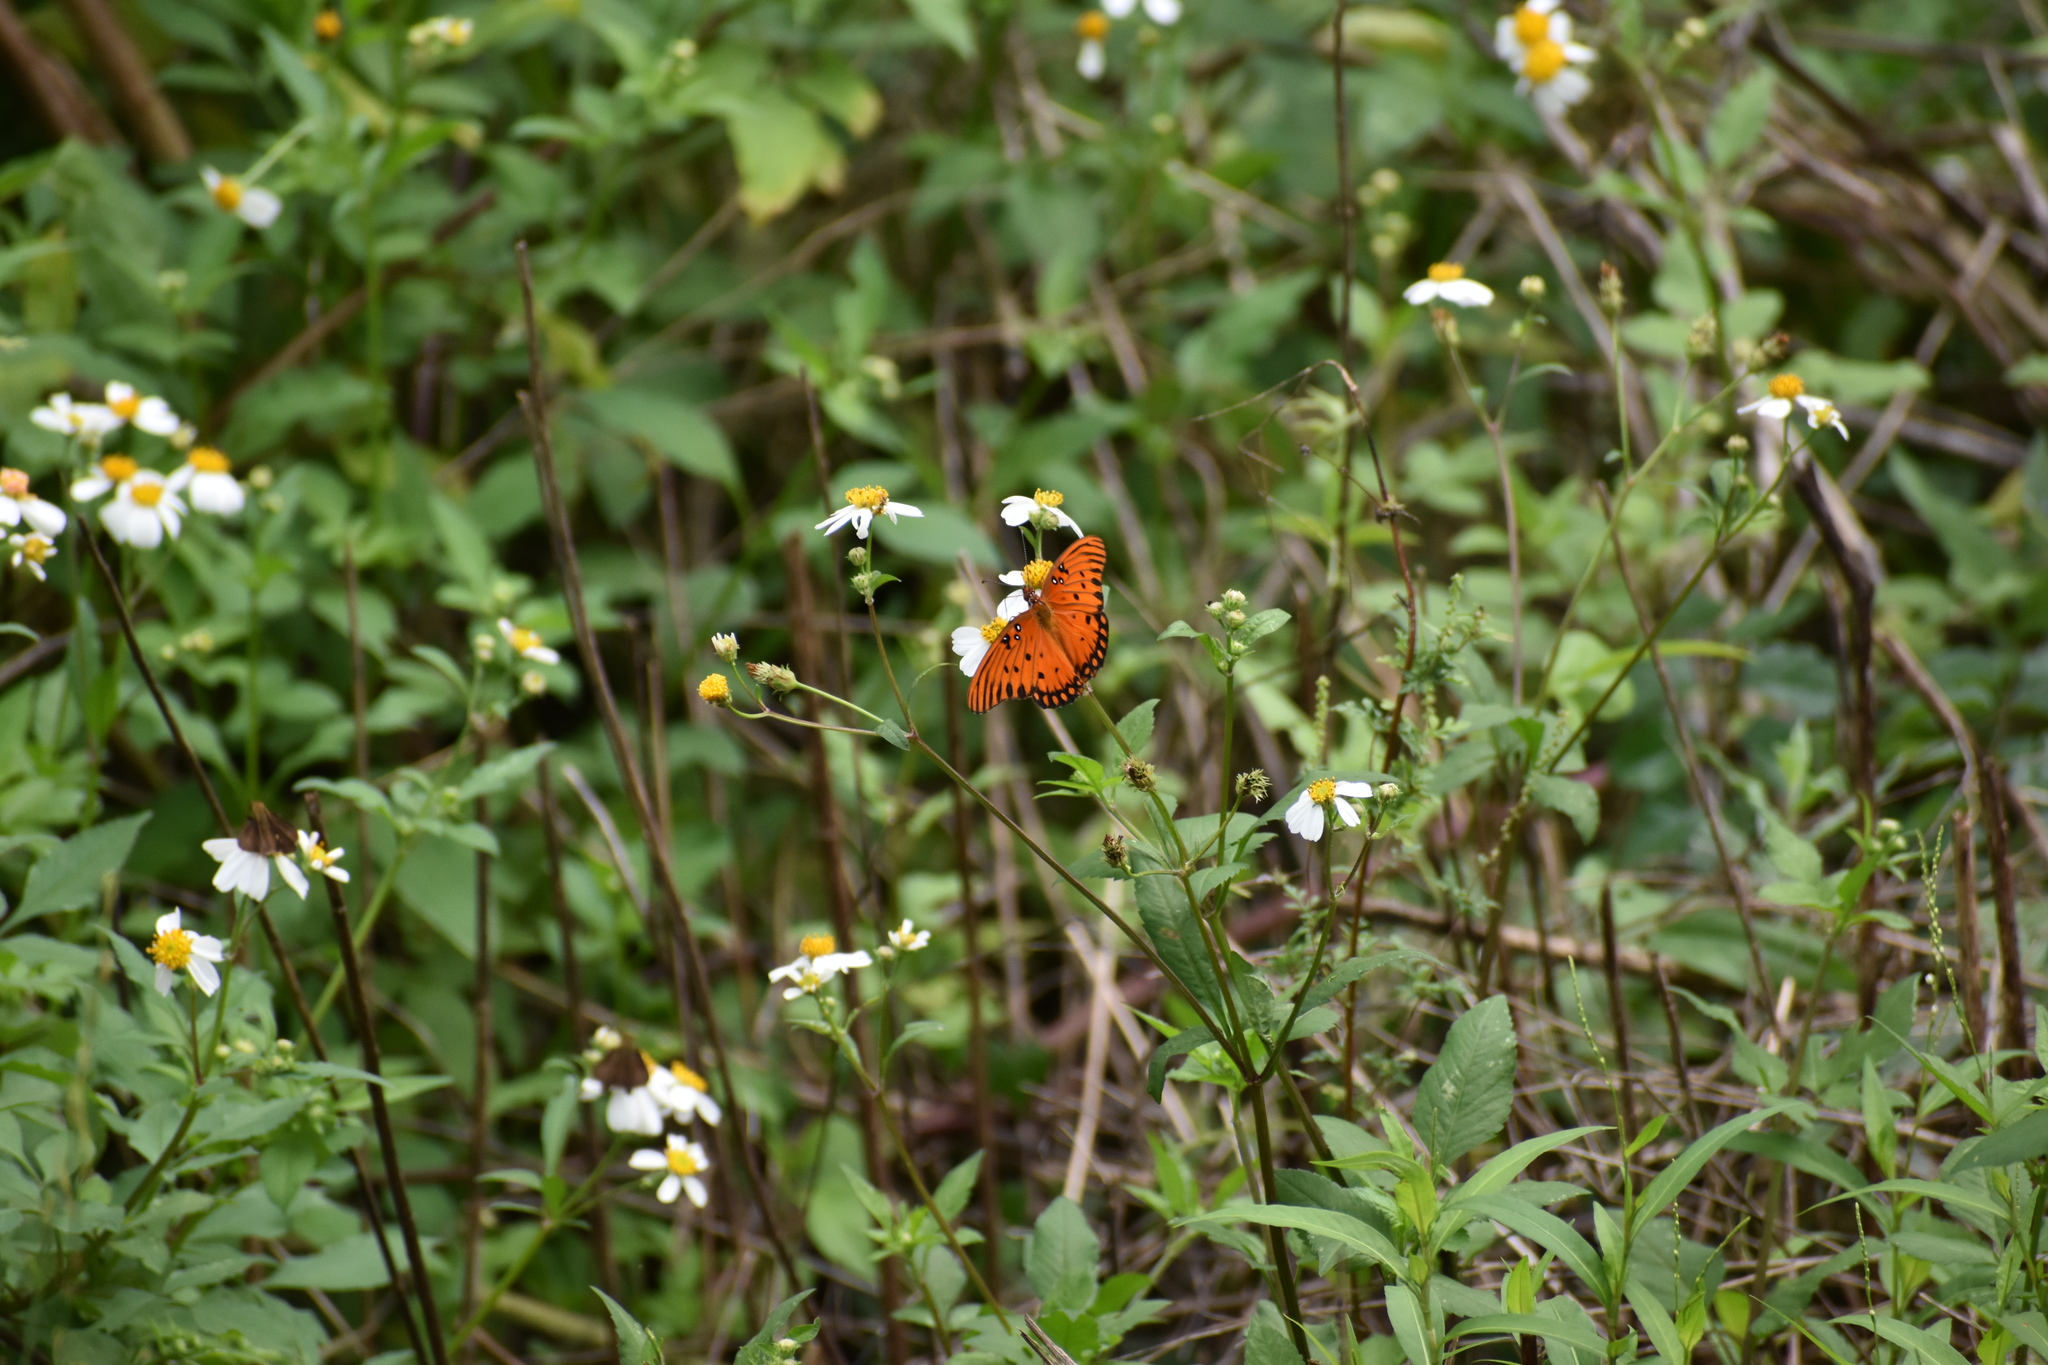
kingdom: Animalia
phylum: Arthropoda
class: Insecta
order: Lepidoptera
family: Nymphalidae
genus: Dione
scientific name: Dione vanillae
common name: Gulf fritillary
